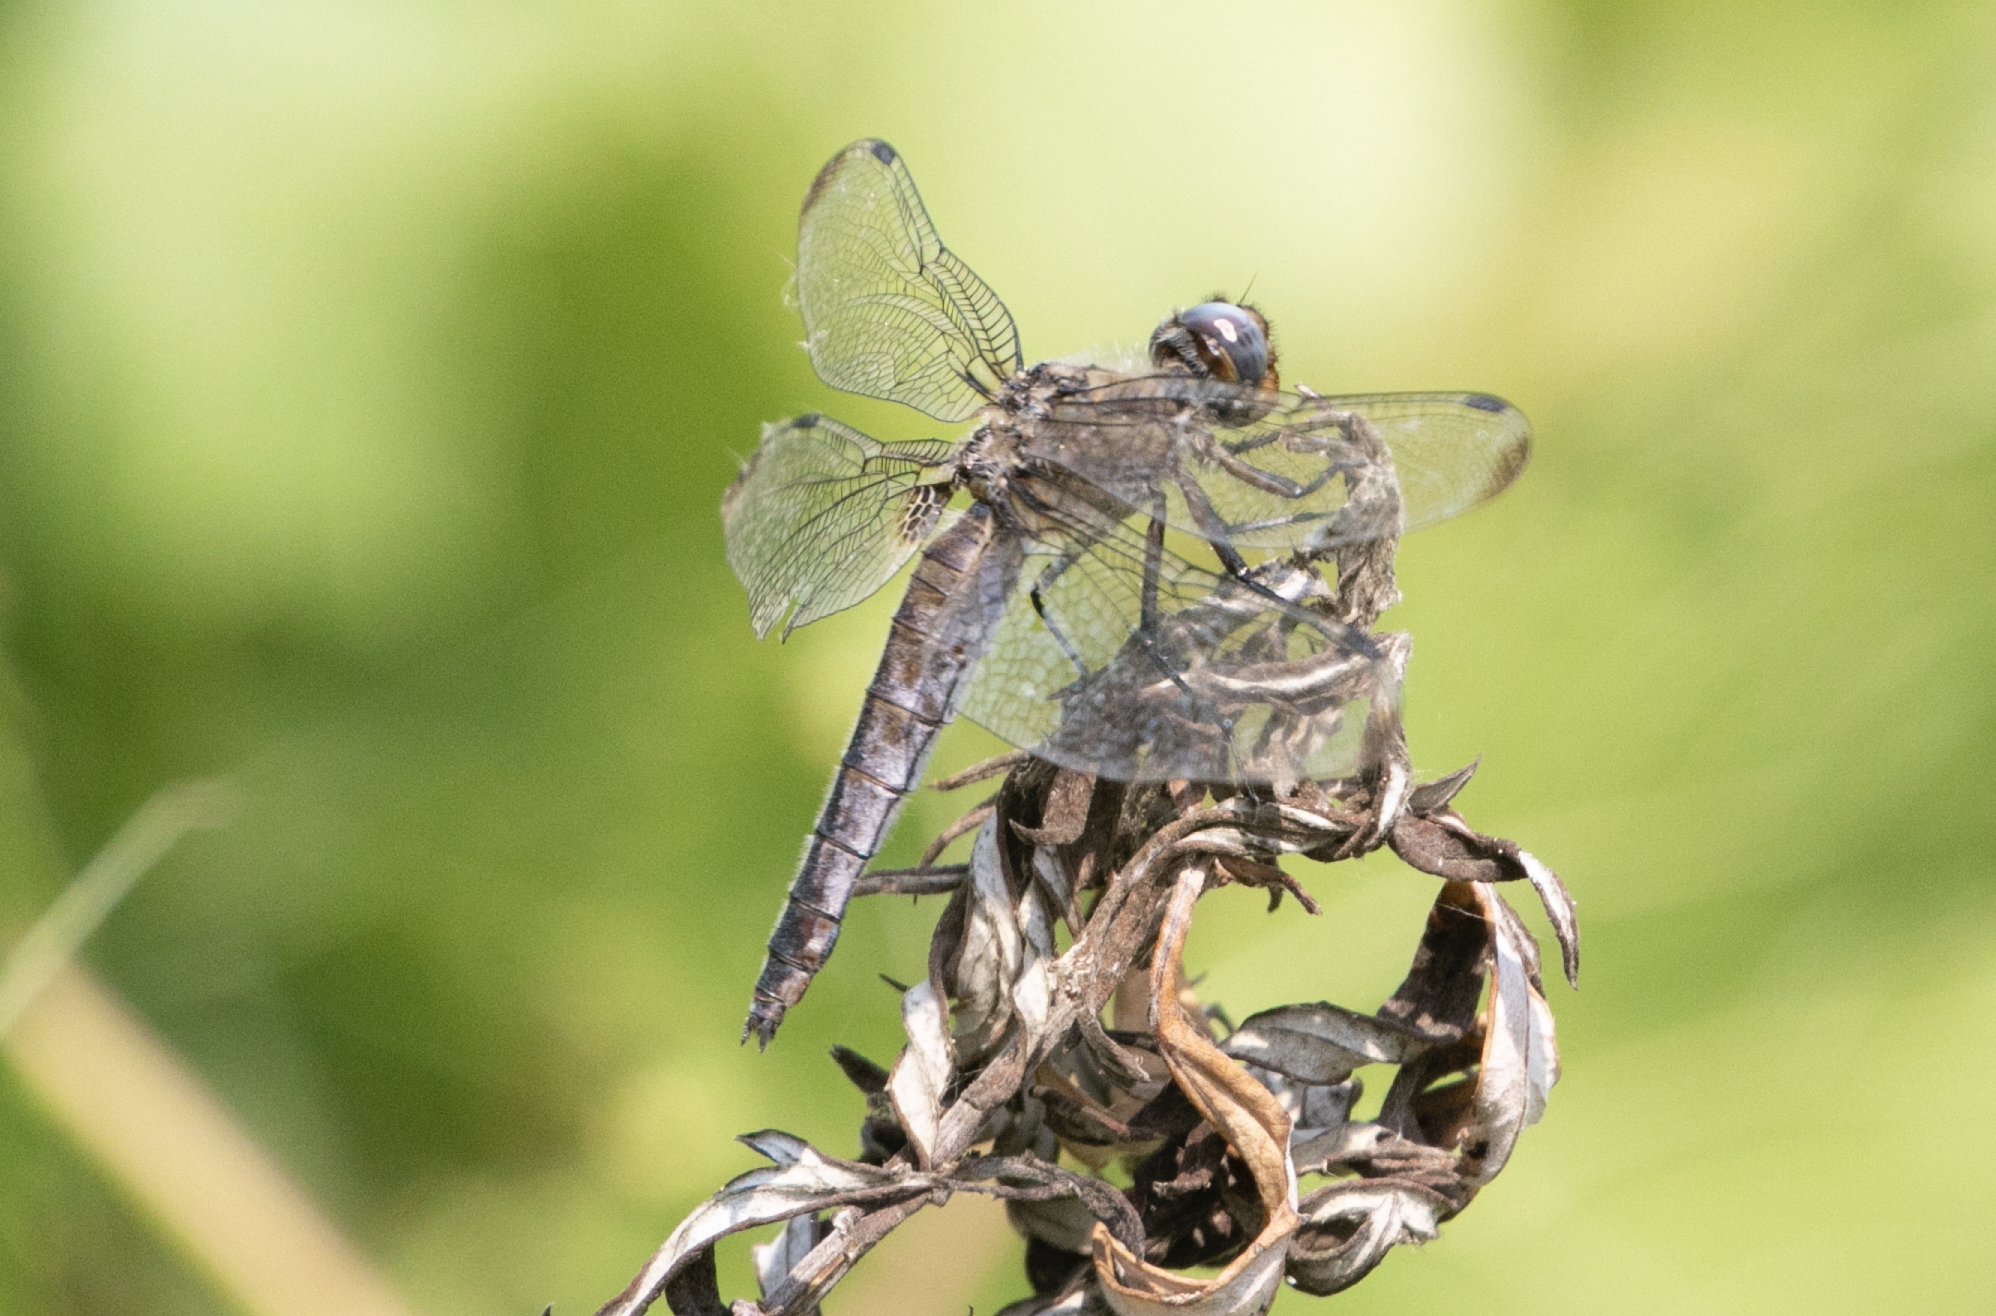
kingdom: Animalia
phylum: Arthropoda
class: Insecta
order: Odonata
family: Libellulidae
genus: Libellula
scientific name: Libellula fulva
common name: Blue chaser
